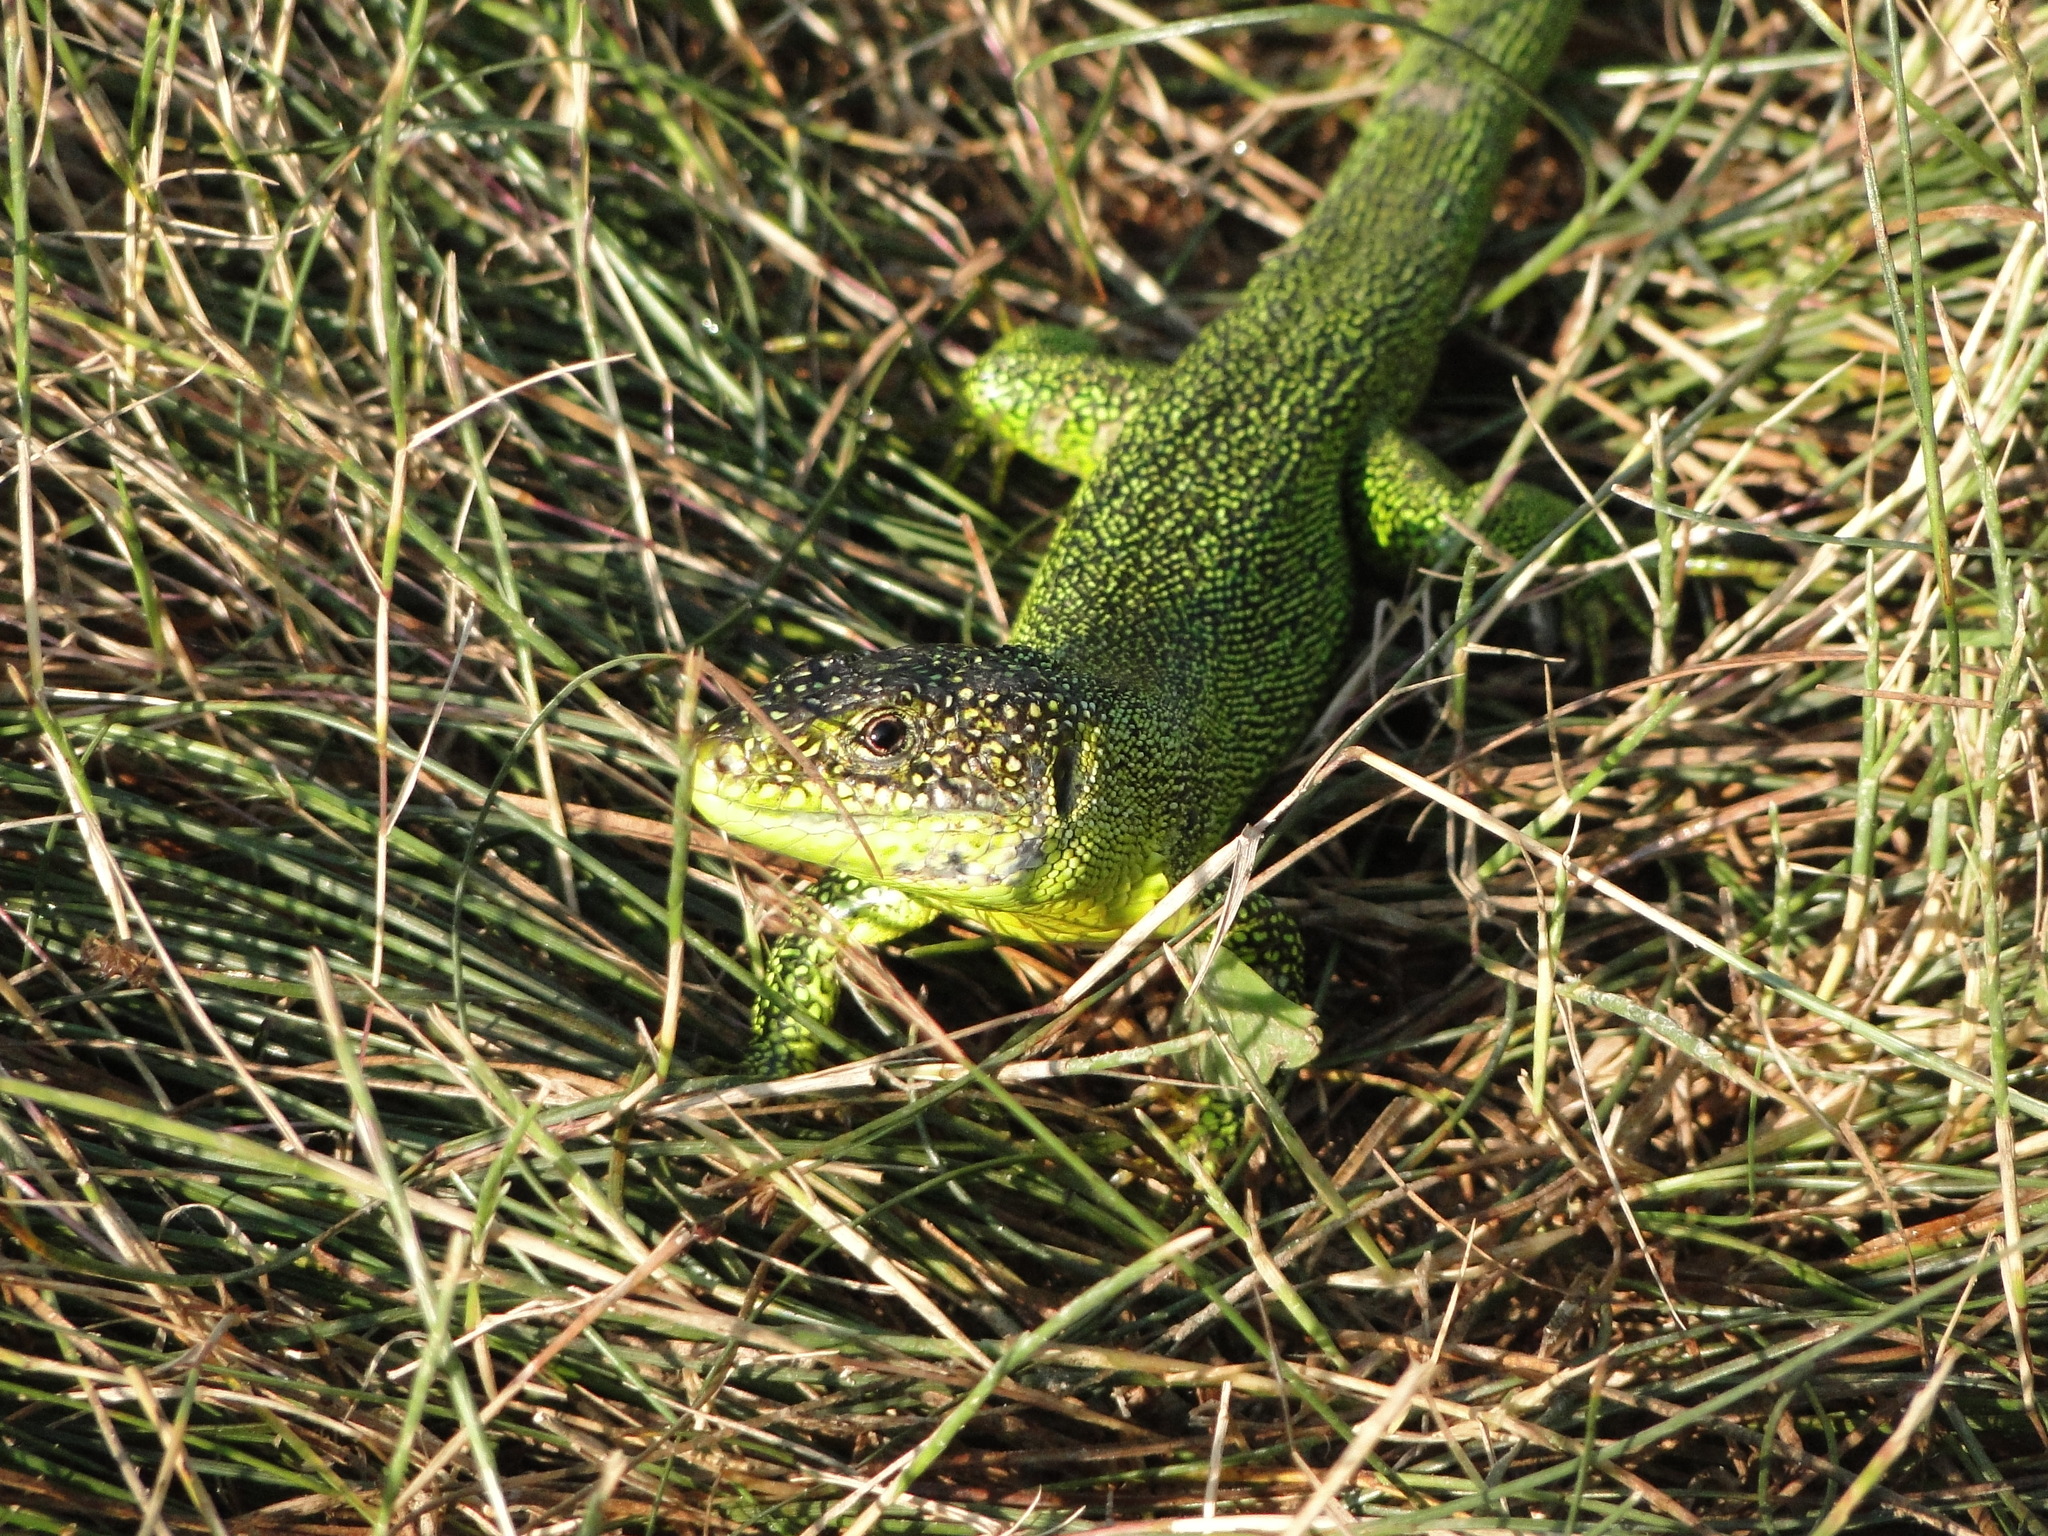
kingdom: Animalia
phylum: Chordata
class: Squamata
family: Lacertidae
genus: Lacerta
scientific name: Lacerta bilineata
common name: Western green lizard
